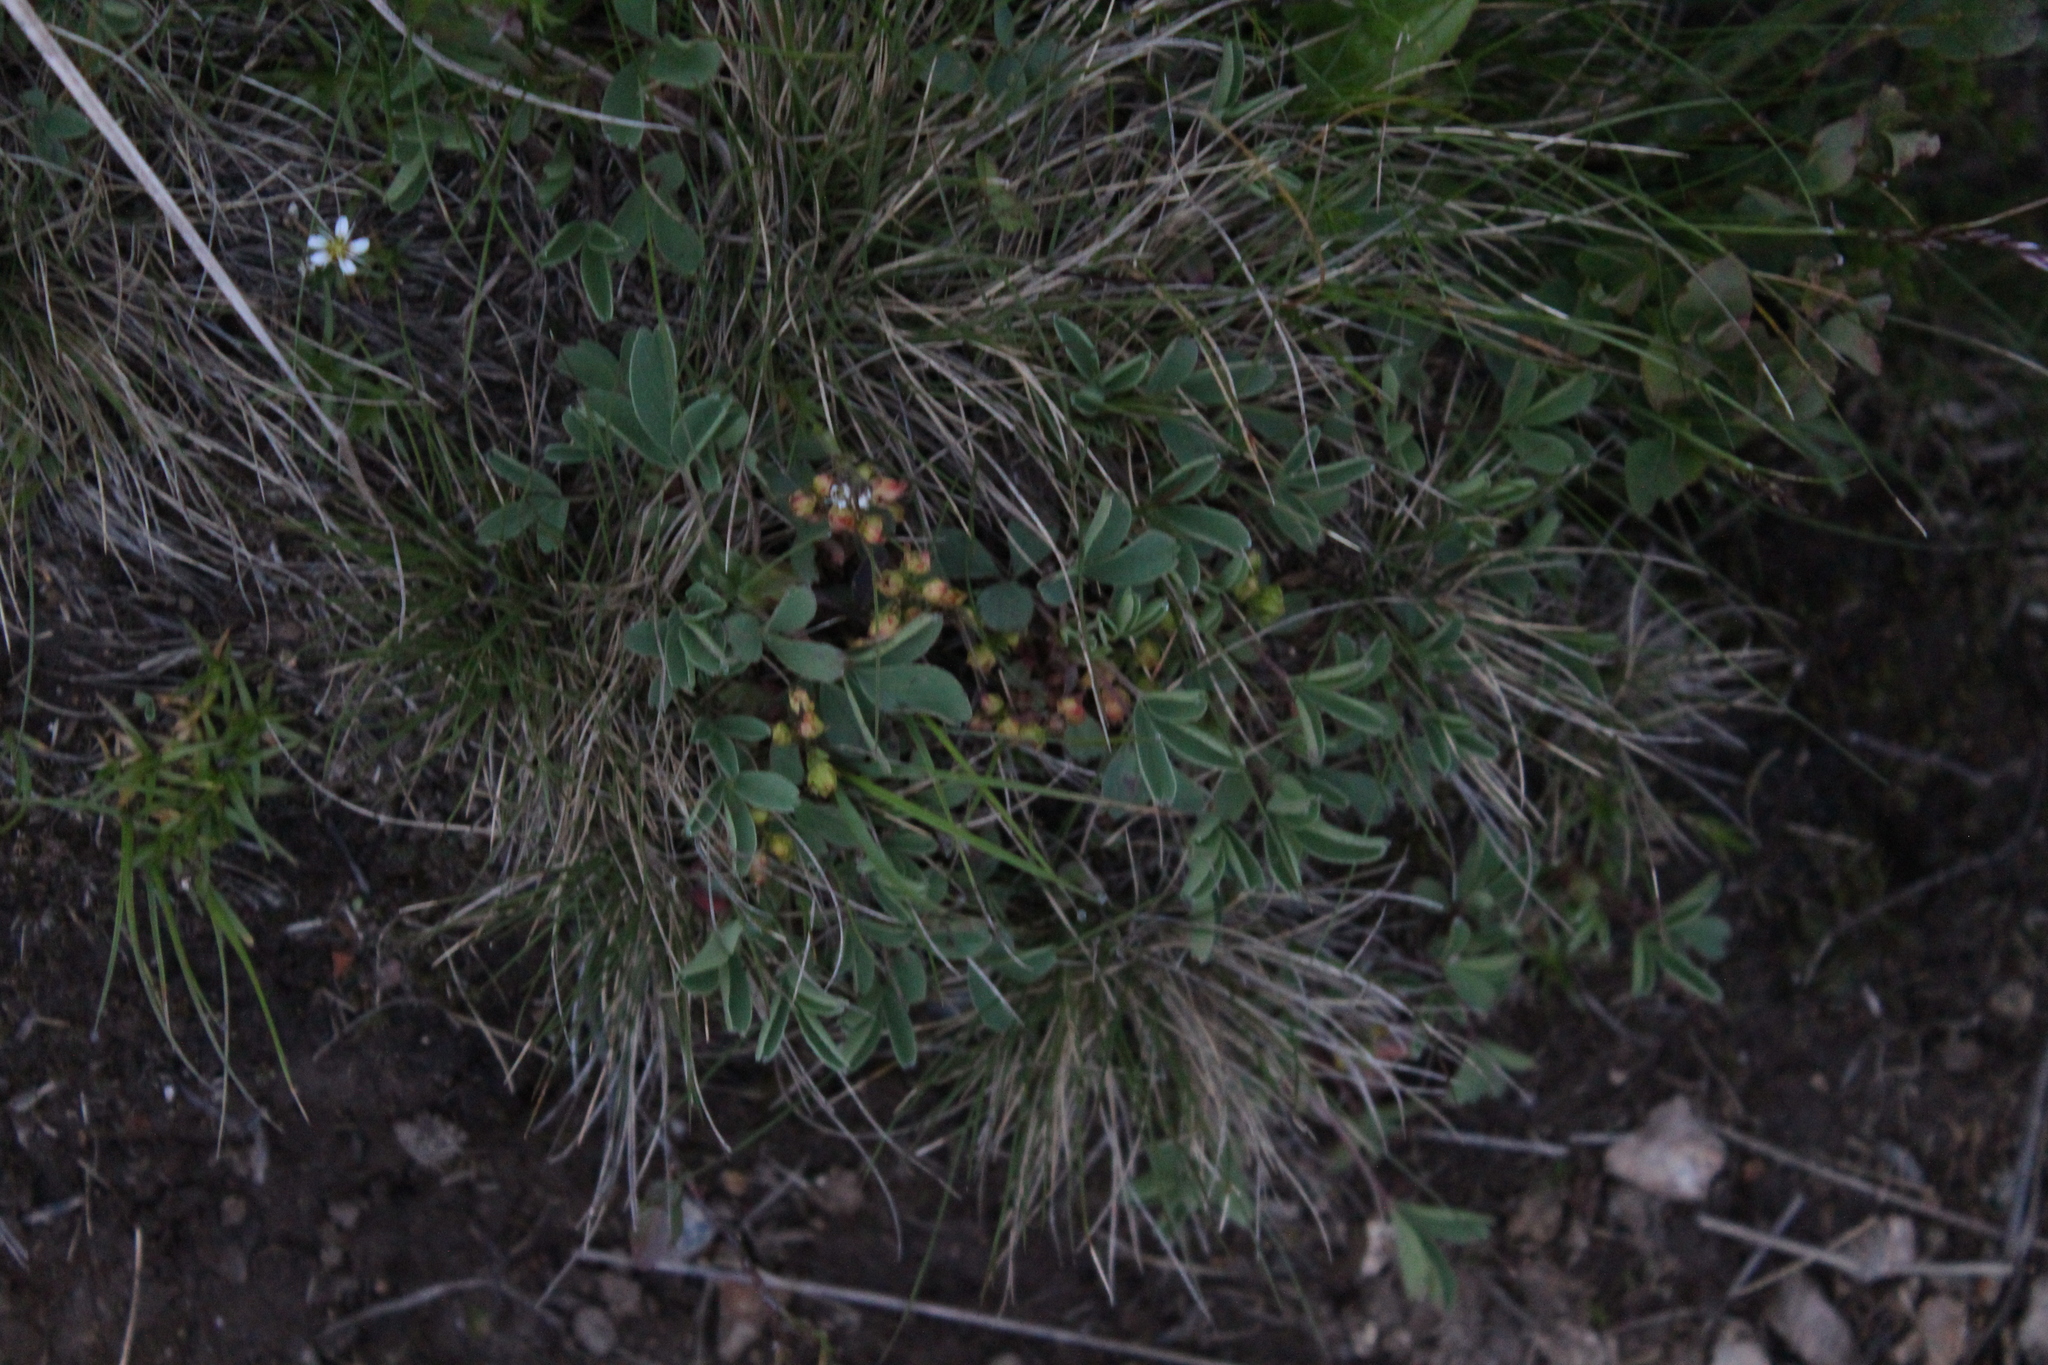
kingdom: Plantae
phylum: Tracheophyta
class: Magnoliopsida
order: Rosales
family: Rosaceae
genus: Sibbaldia
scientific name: Sibbaldia parviflora
